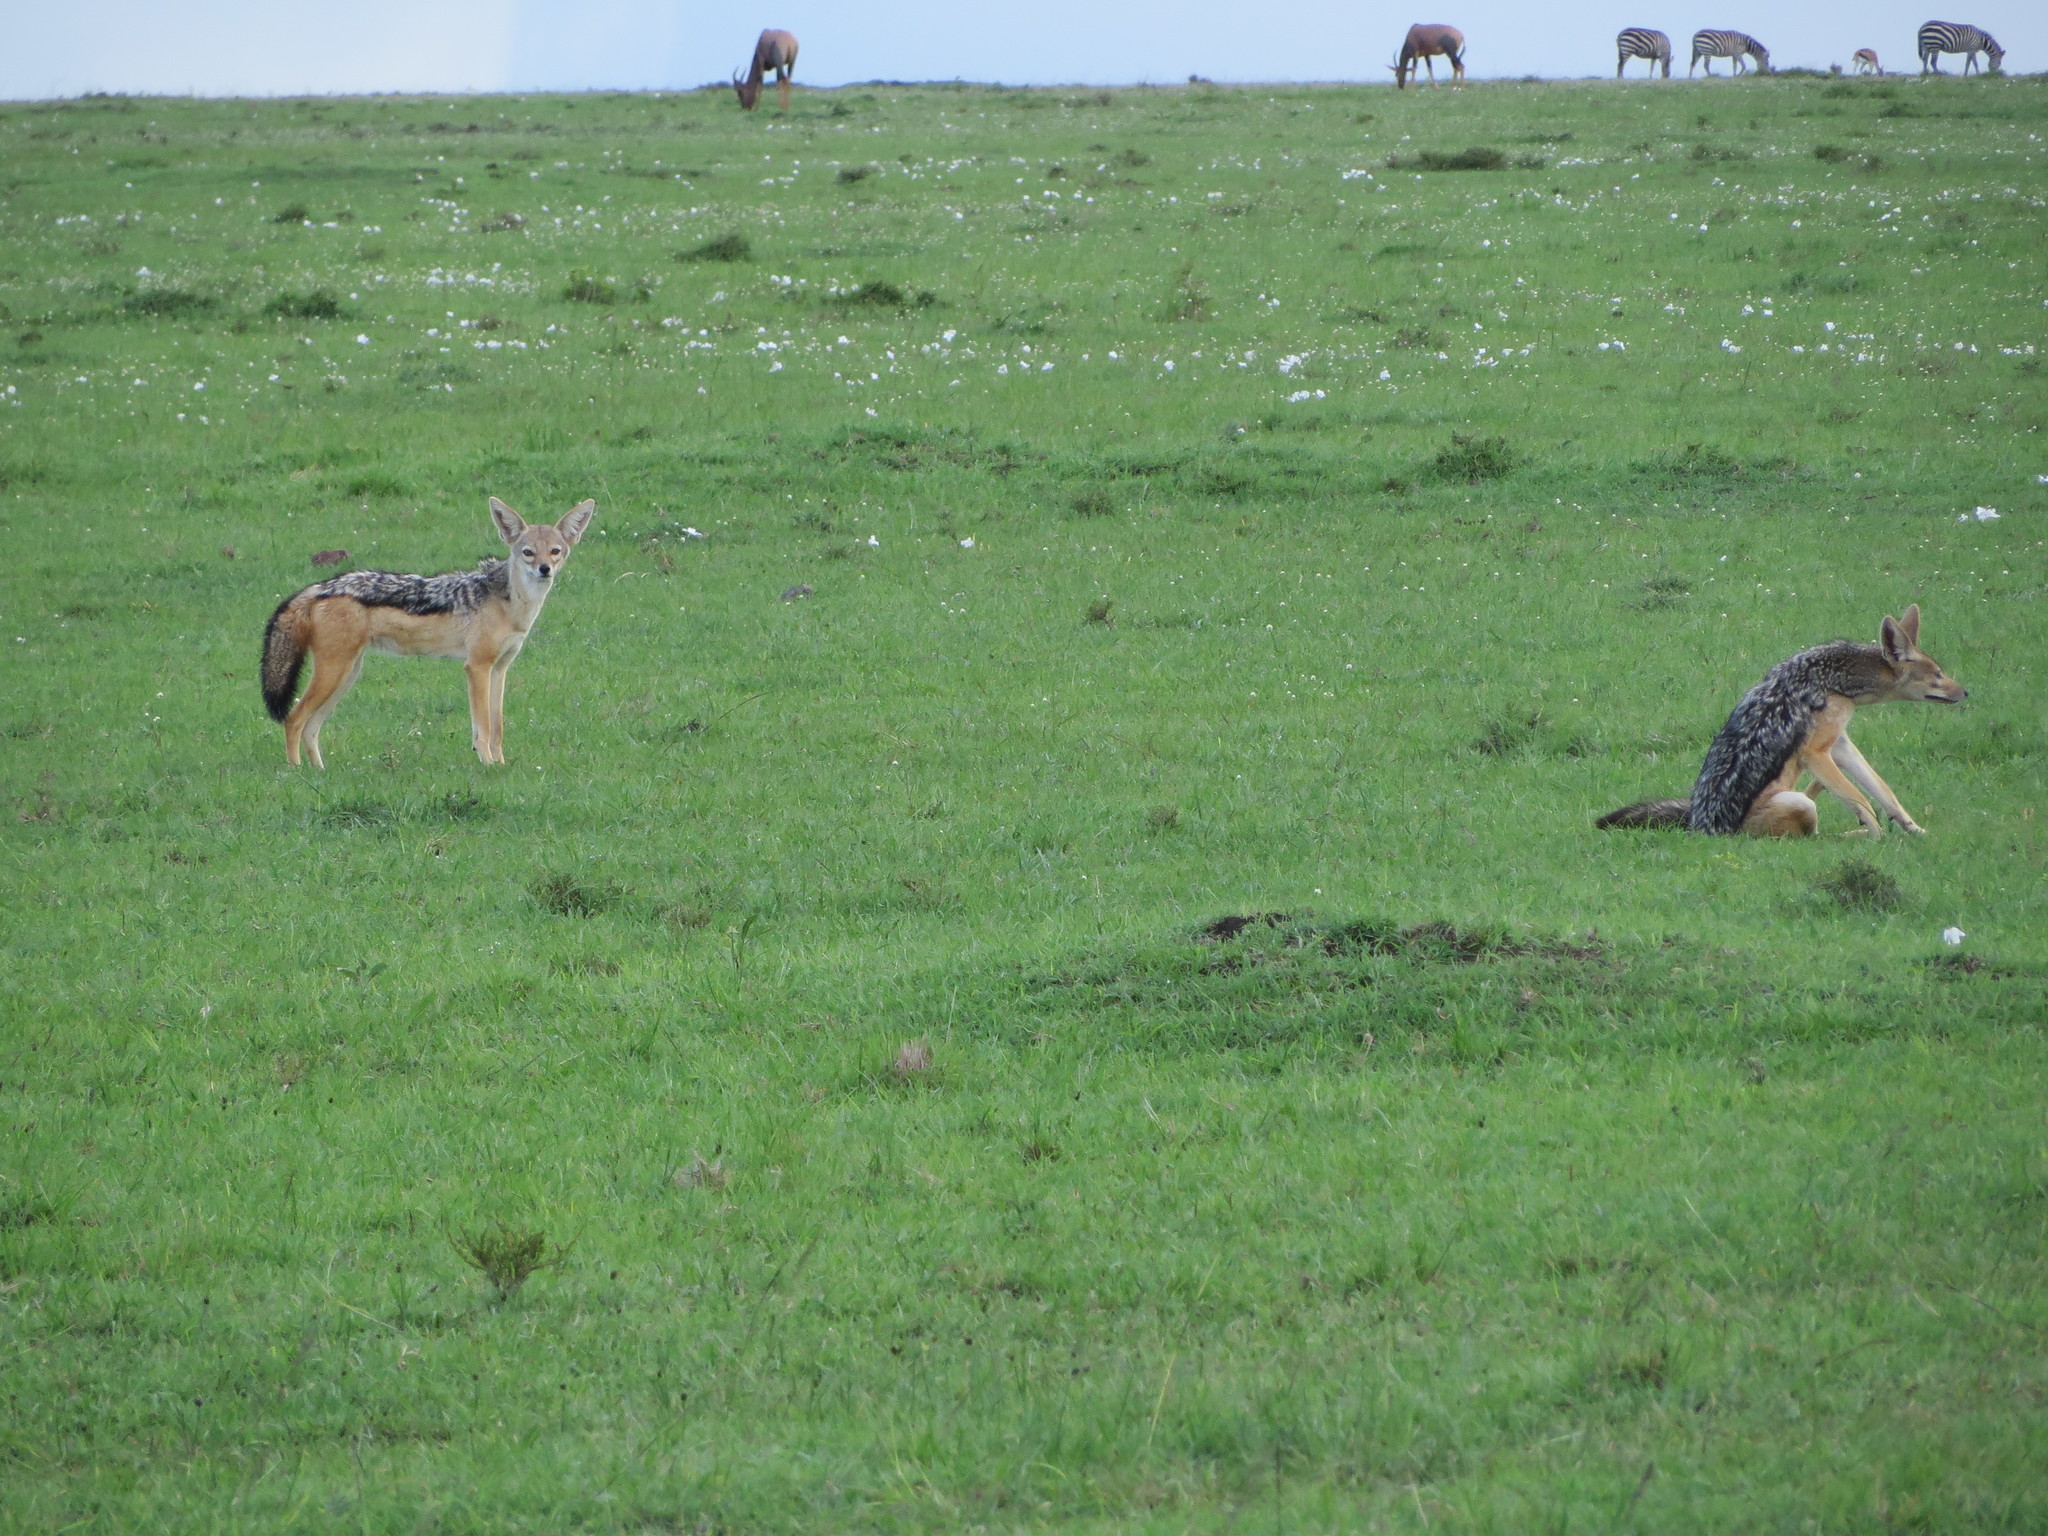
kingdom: Animalia
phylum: Chordata
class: Mammalia
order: Carnivora
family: Canidae
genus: Lupulella
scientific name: Lupulella
